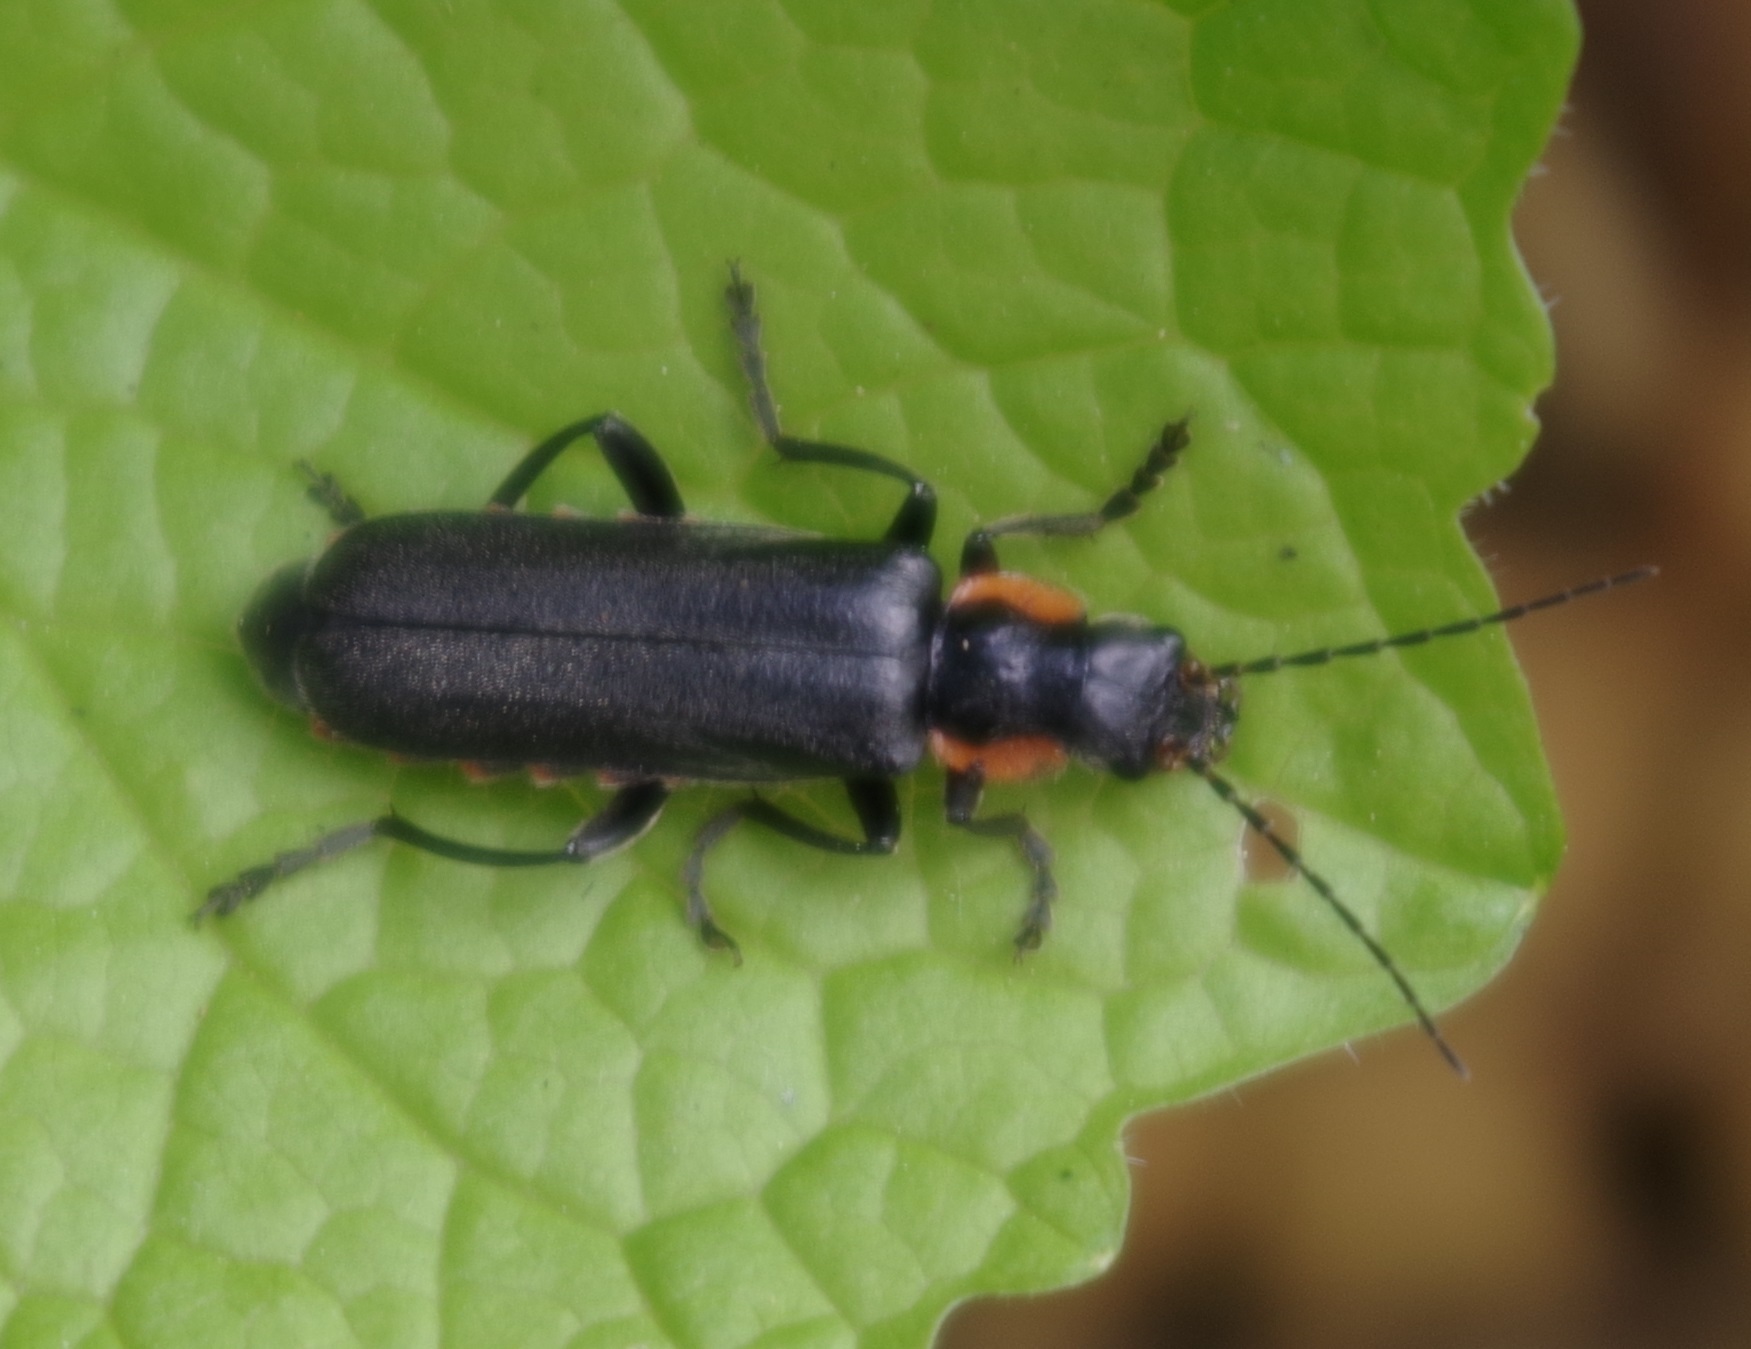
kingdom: Animalia
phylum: Arthropoda
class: Insecta
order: Coleoptera
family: Cantharidae
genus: Cantharis
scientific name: Cantharis obscura
